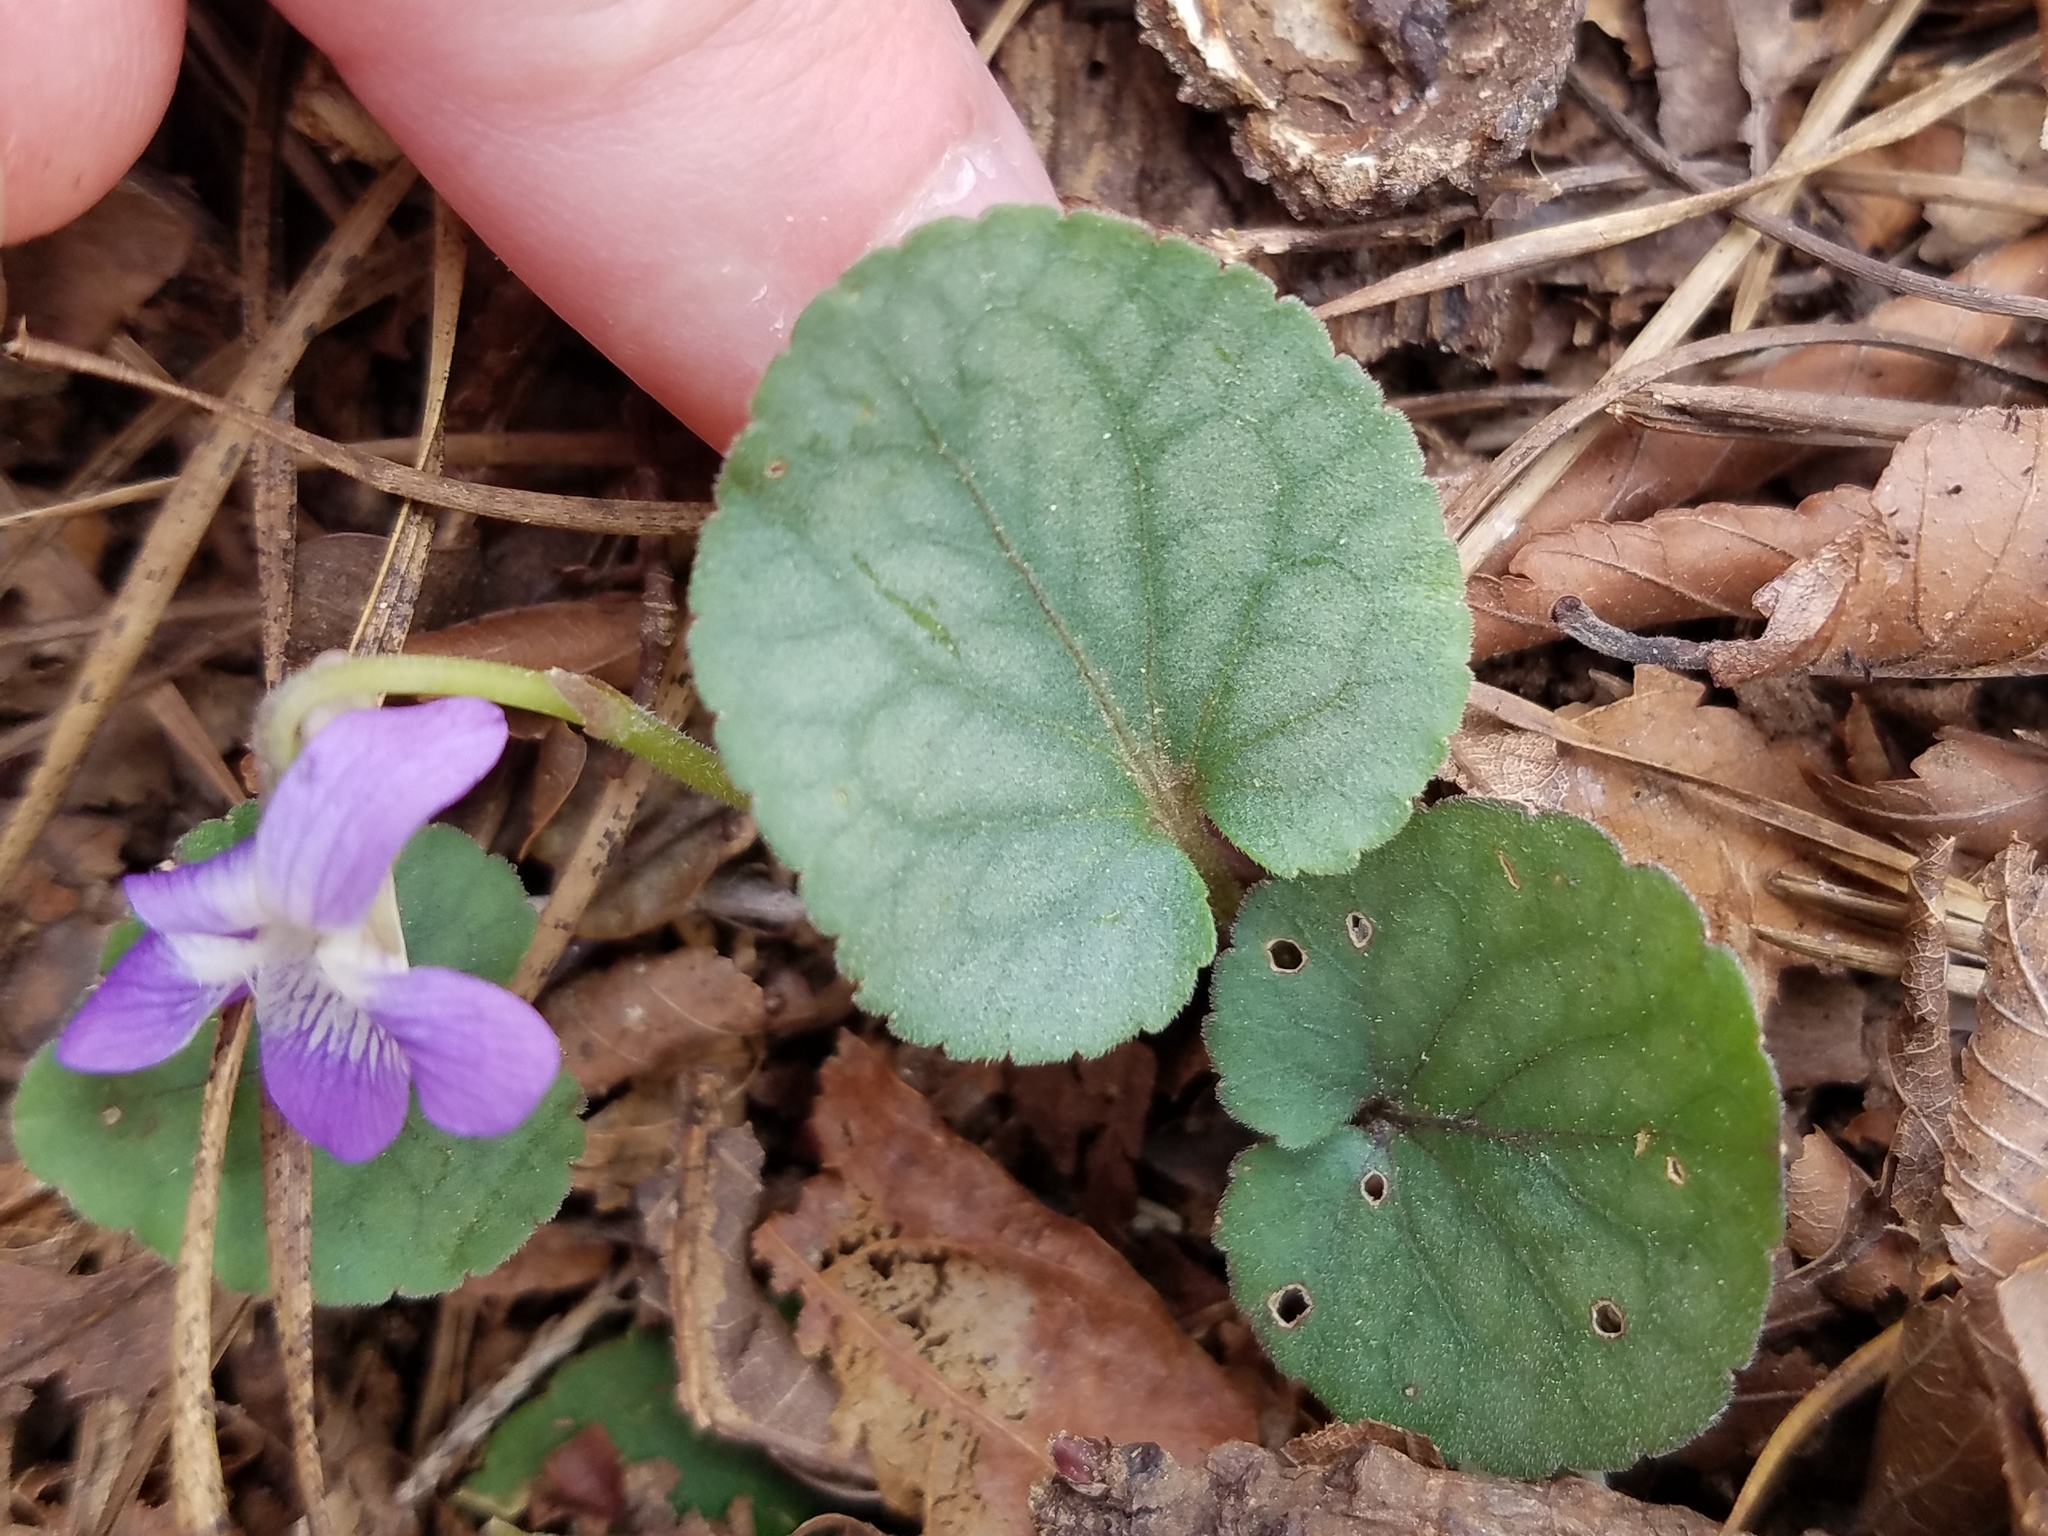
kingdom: Plantae
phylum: Tracheophyta
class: Magnoliopsida
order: Malpighiales
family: Violaceae
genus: Viola
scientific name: Viola hirsutula
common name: Southern wood violet
